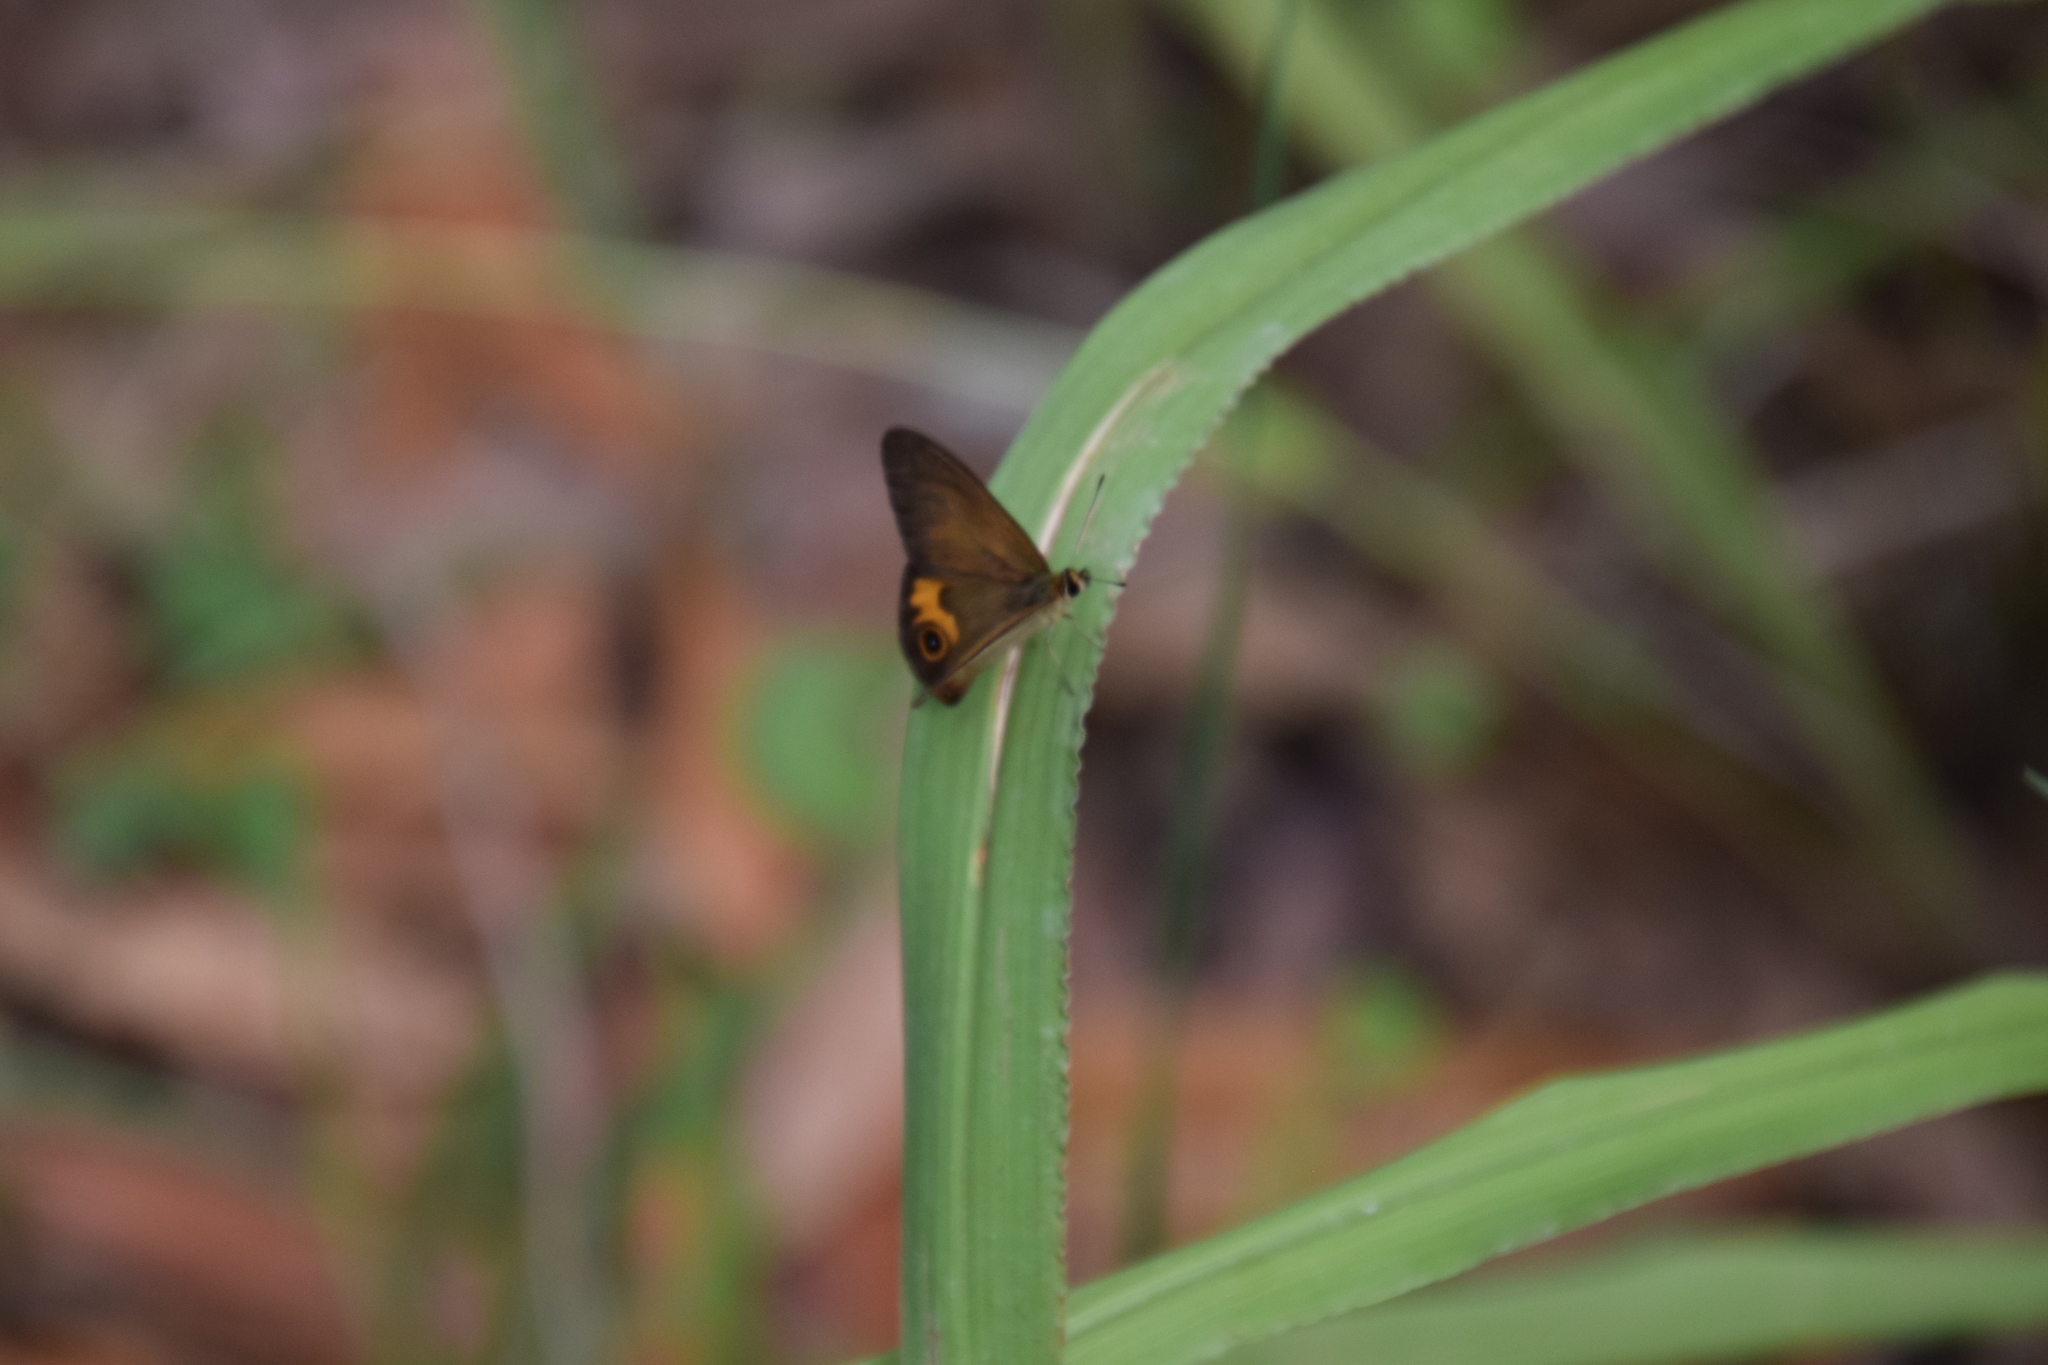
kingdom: Animalia
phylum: Arthropoda
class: Insecta
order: Lepidoptera
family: Nymphalidae
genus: Hypocysta
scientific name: Hypocysta metirius
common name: Brown ringlet
